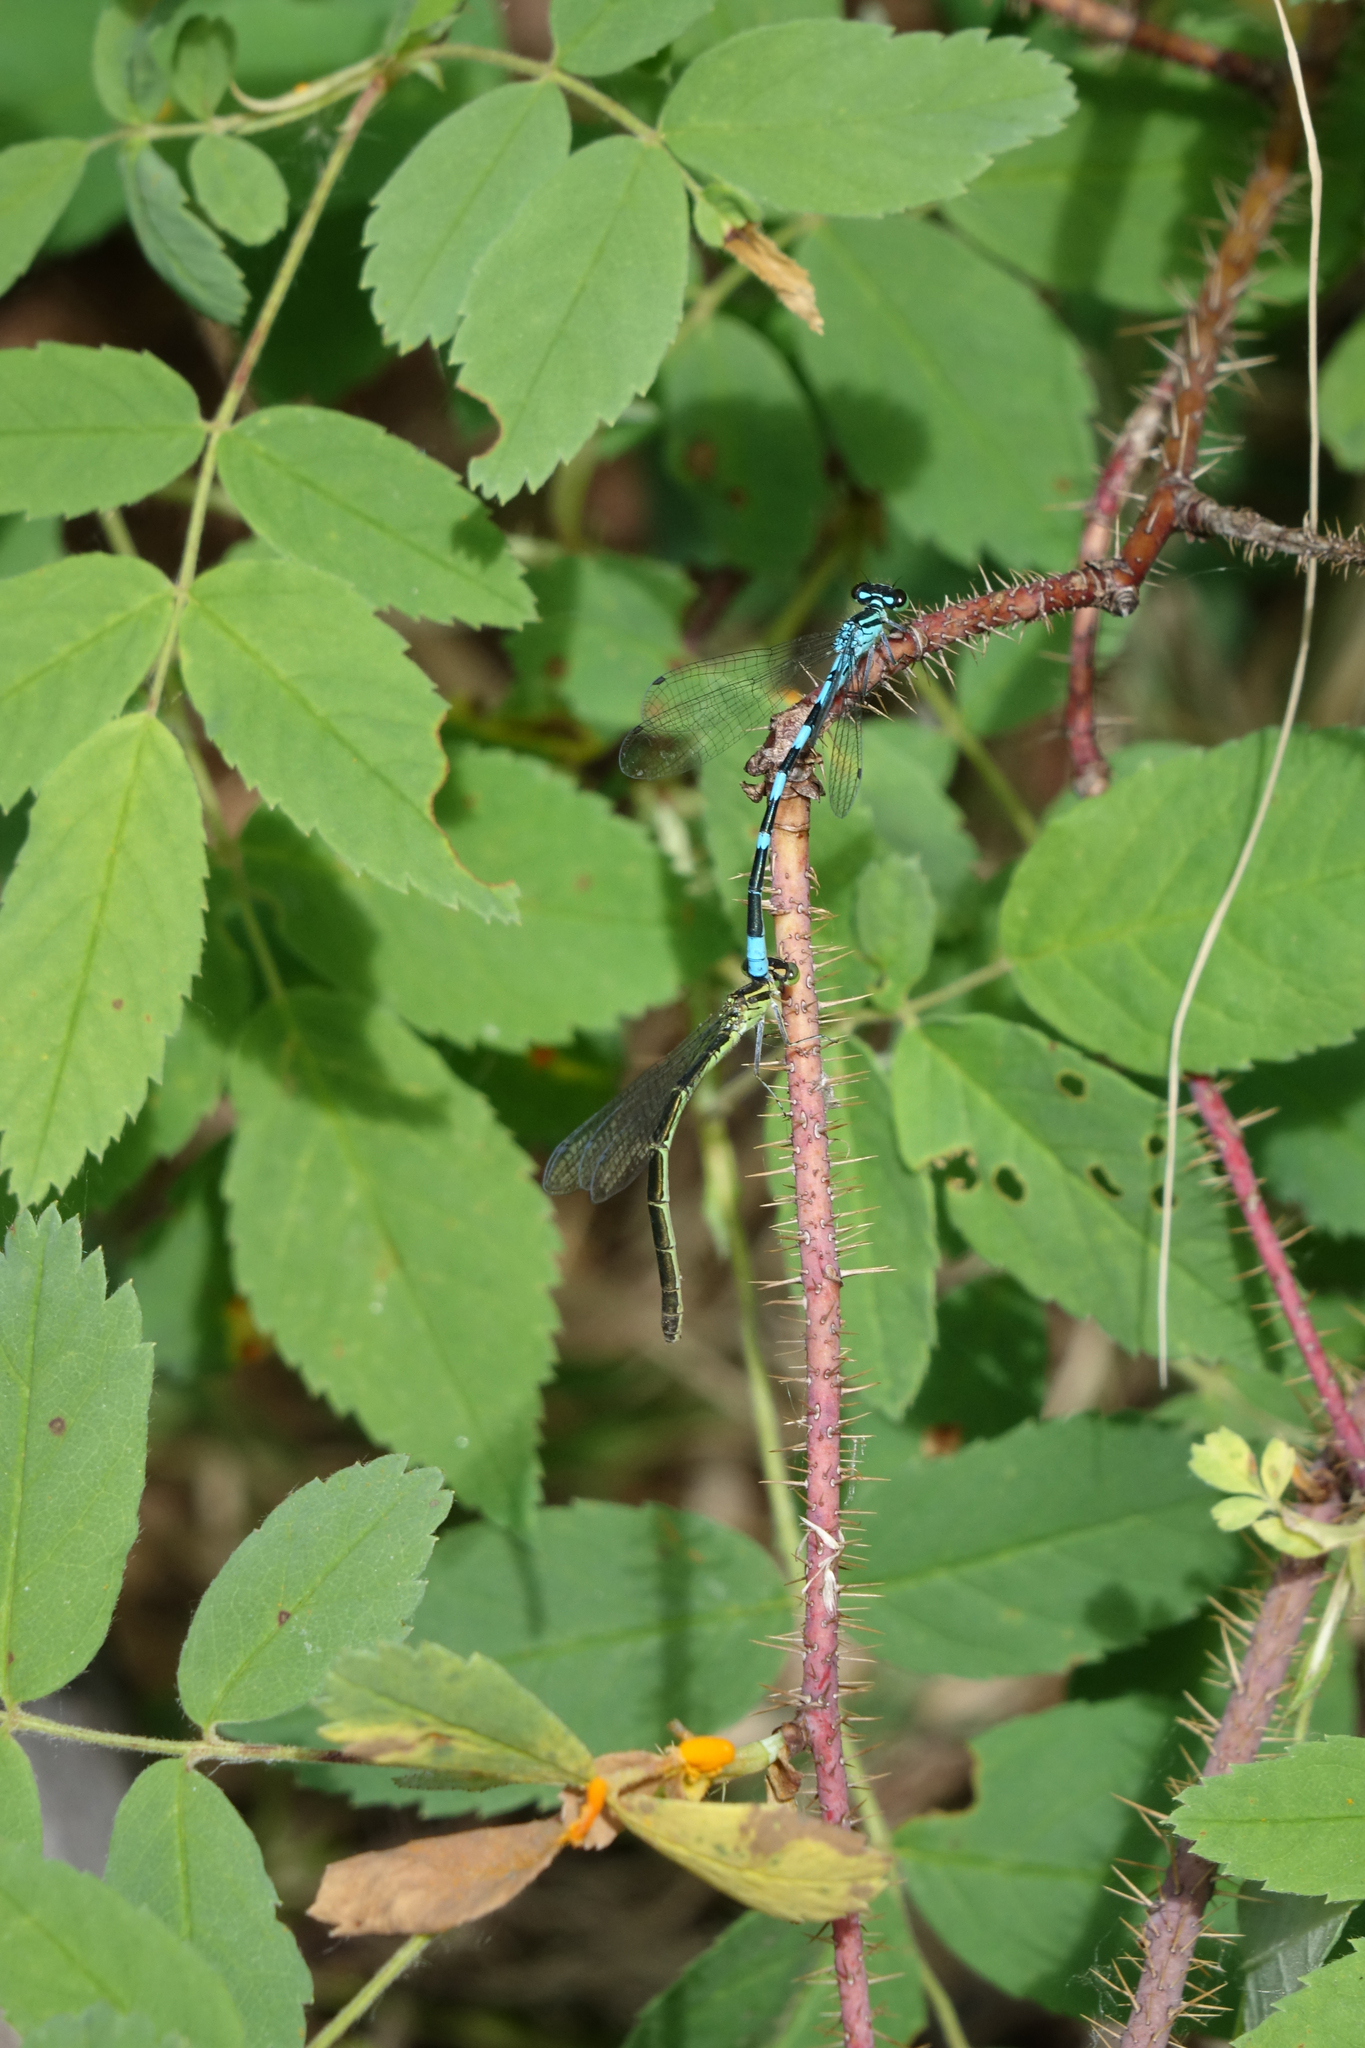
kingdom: Plantae
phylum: Tracheophyta
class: Magnoliopsida
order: Rosales
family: Rosaceae
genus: Rosa
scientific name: Rosa acicularis
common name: Prickly rose
